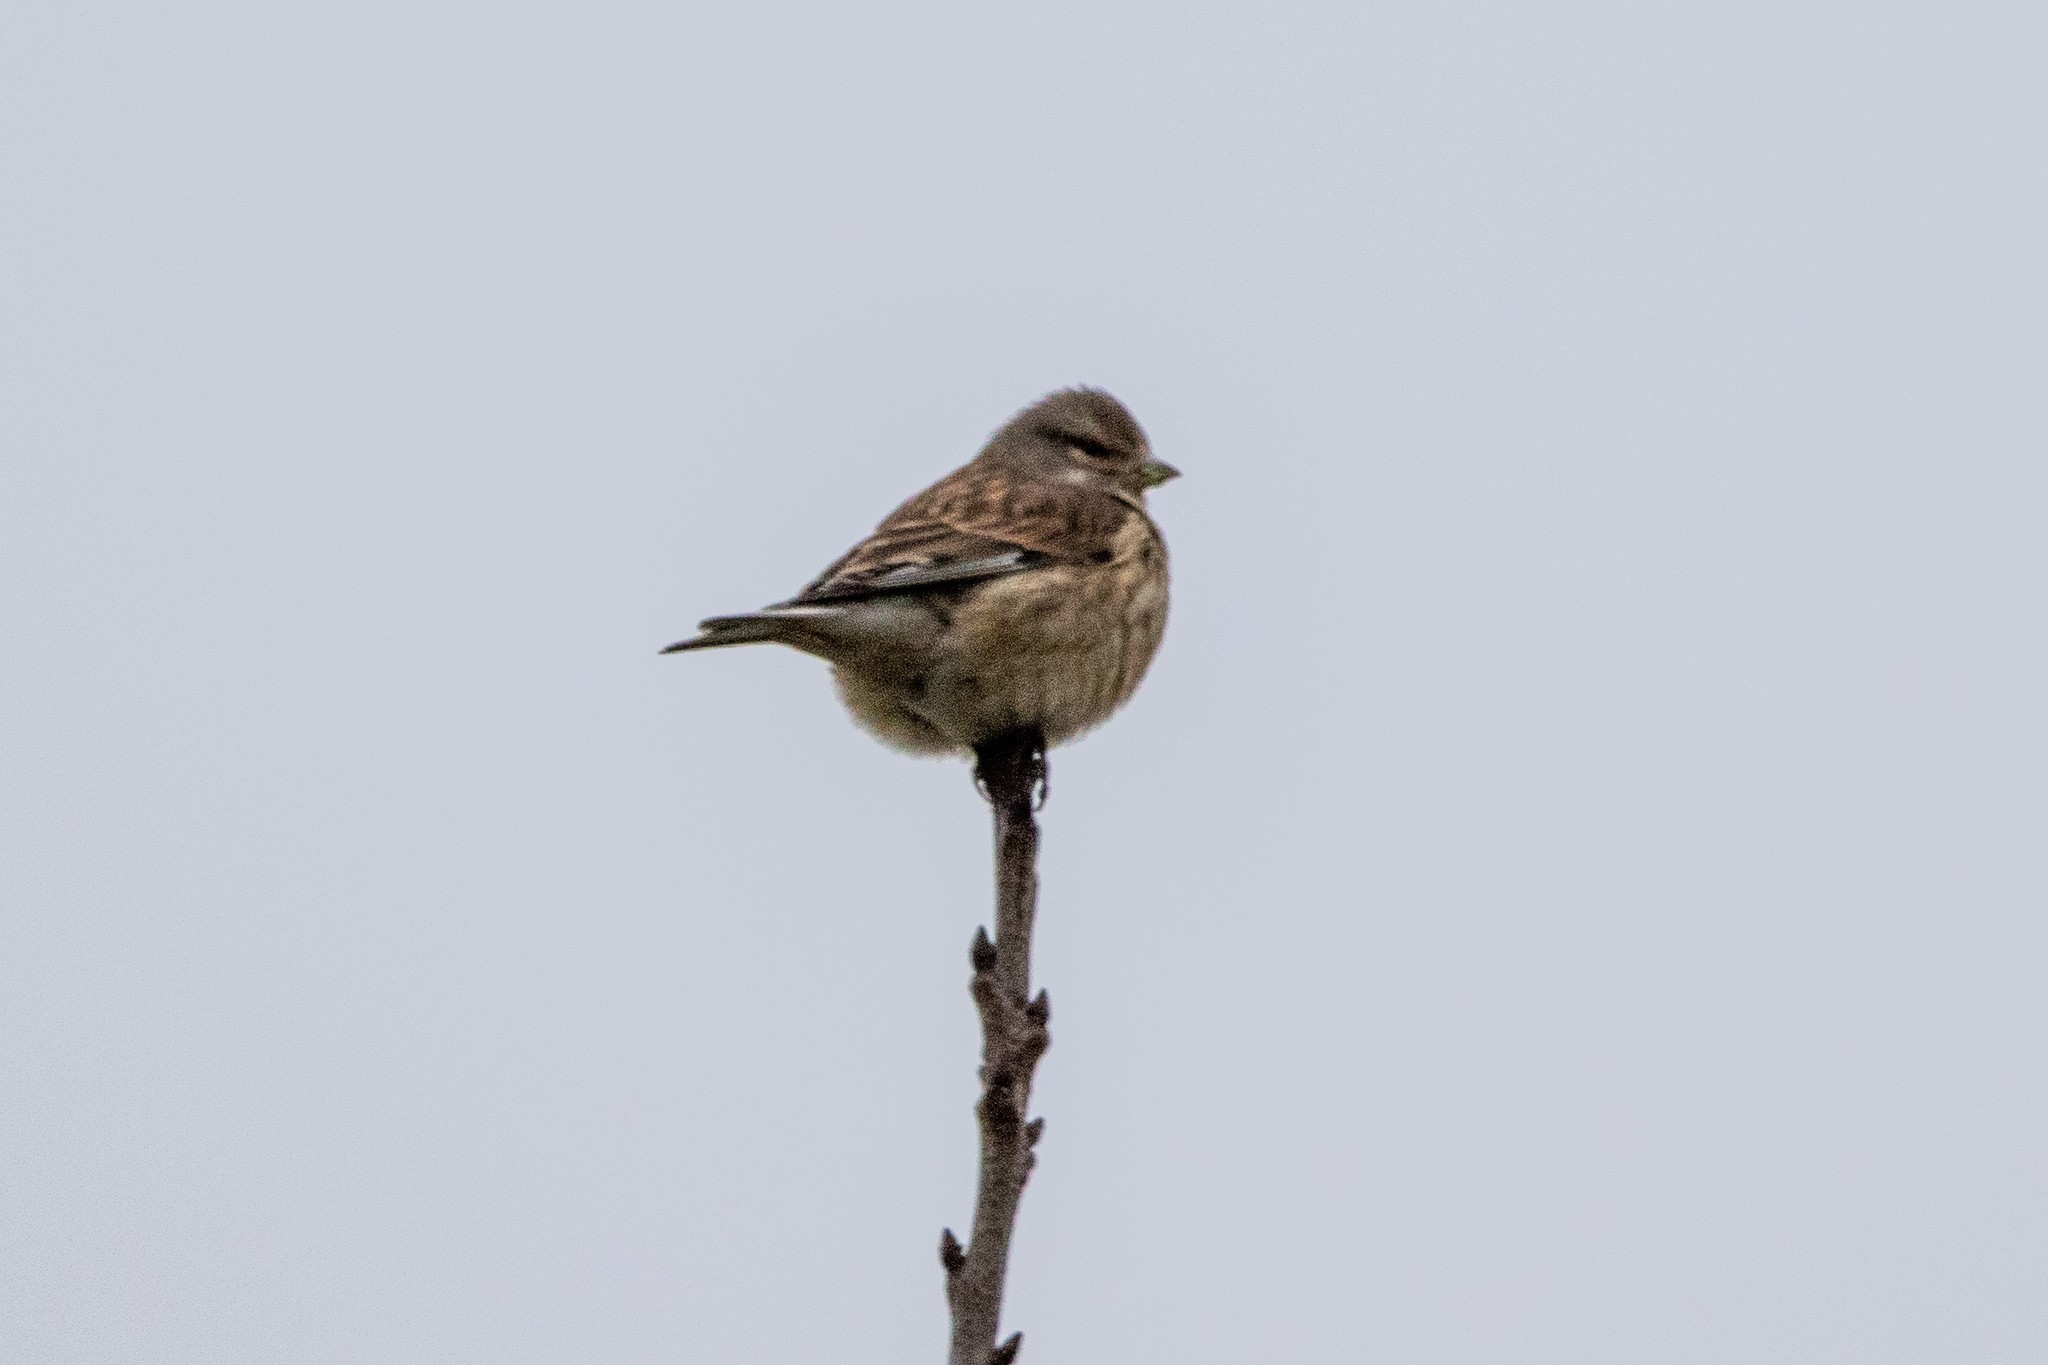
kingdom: Animalia
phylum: Chordata
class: Aves
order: Passeriformes
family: Fringillidae
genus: Linaria
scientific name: Linaria cannabina
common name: Common linnet
